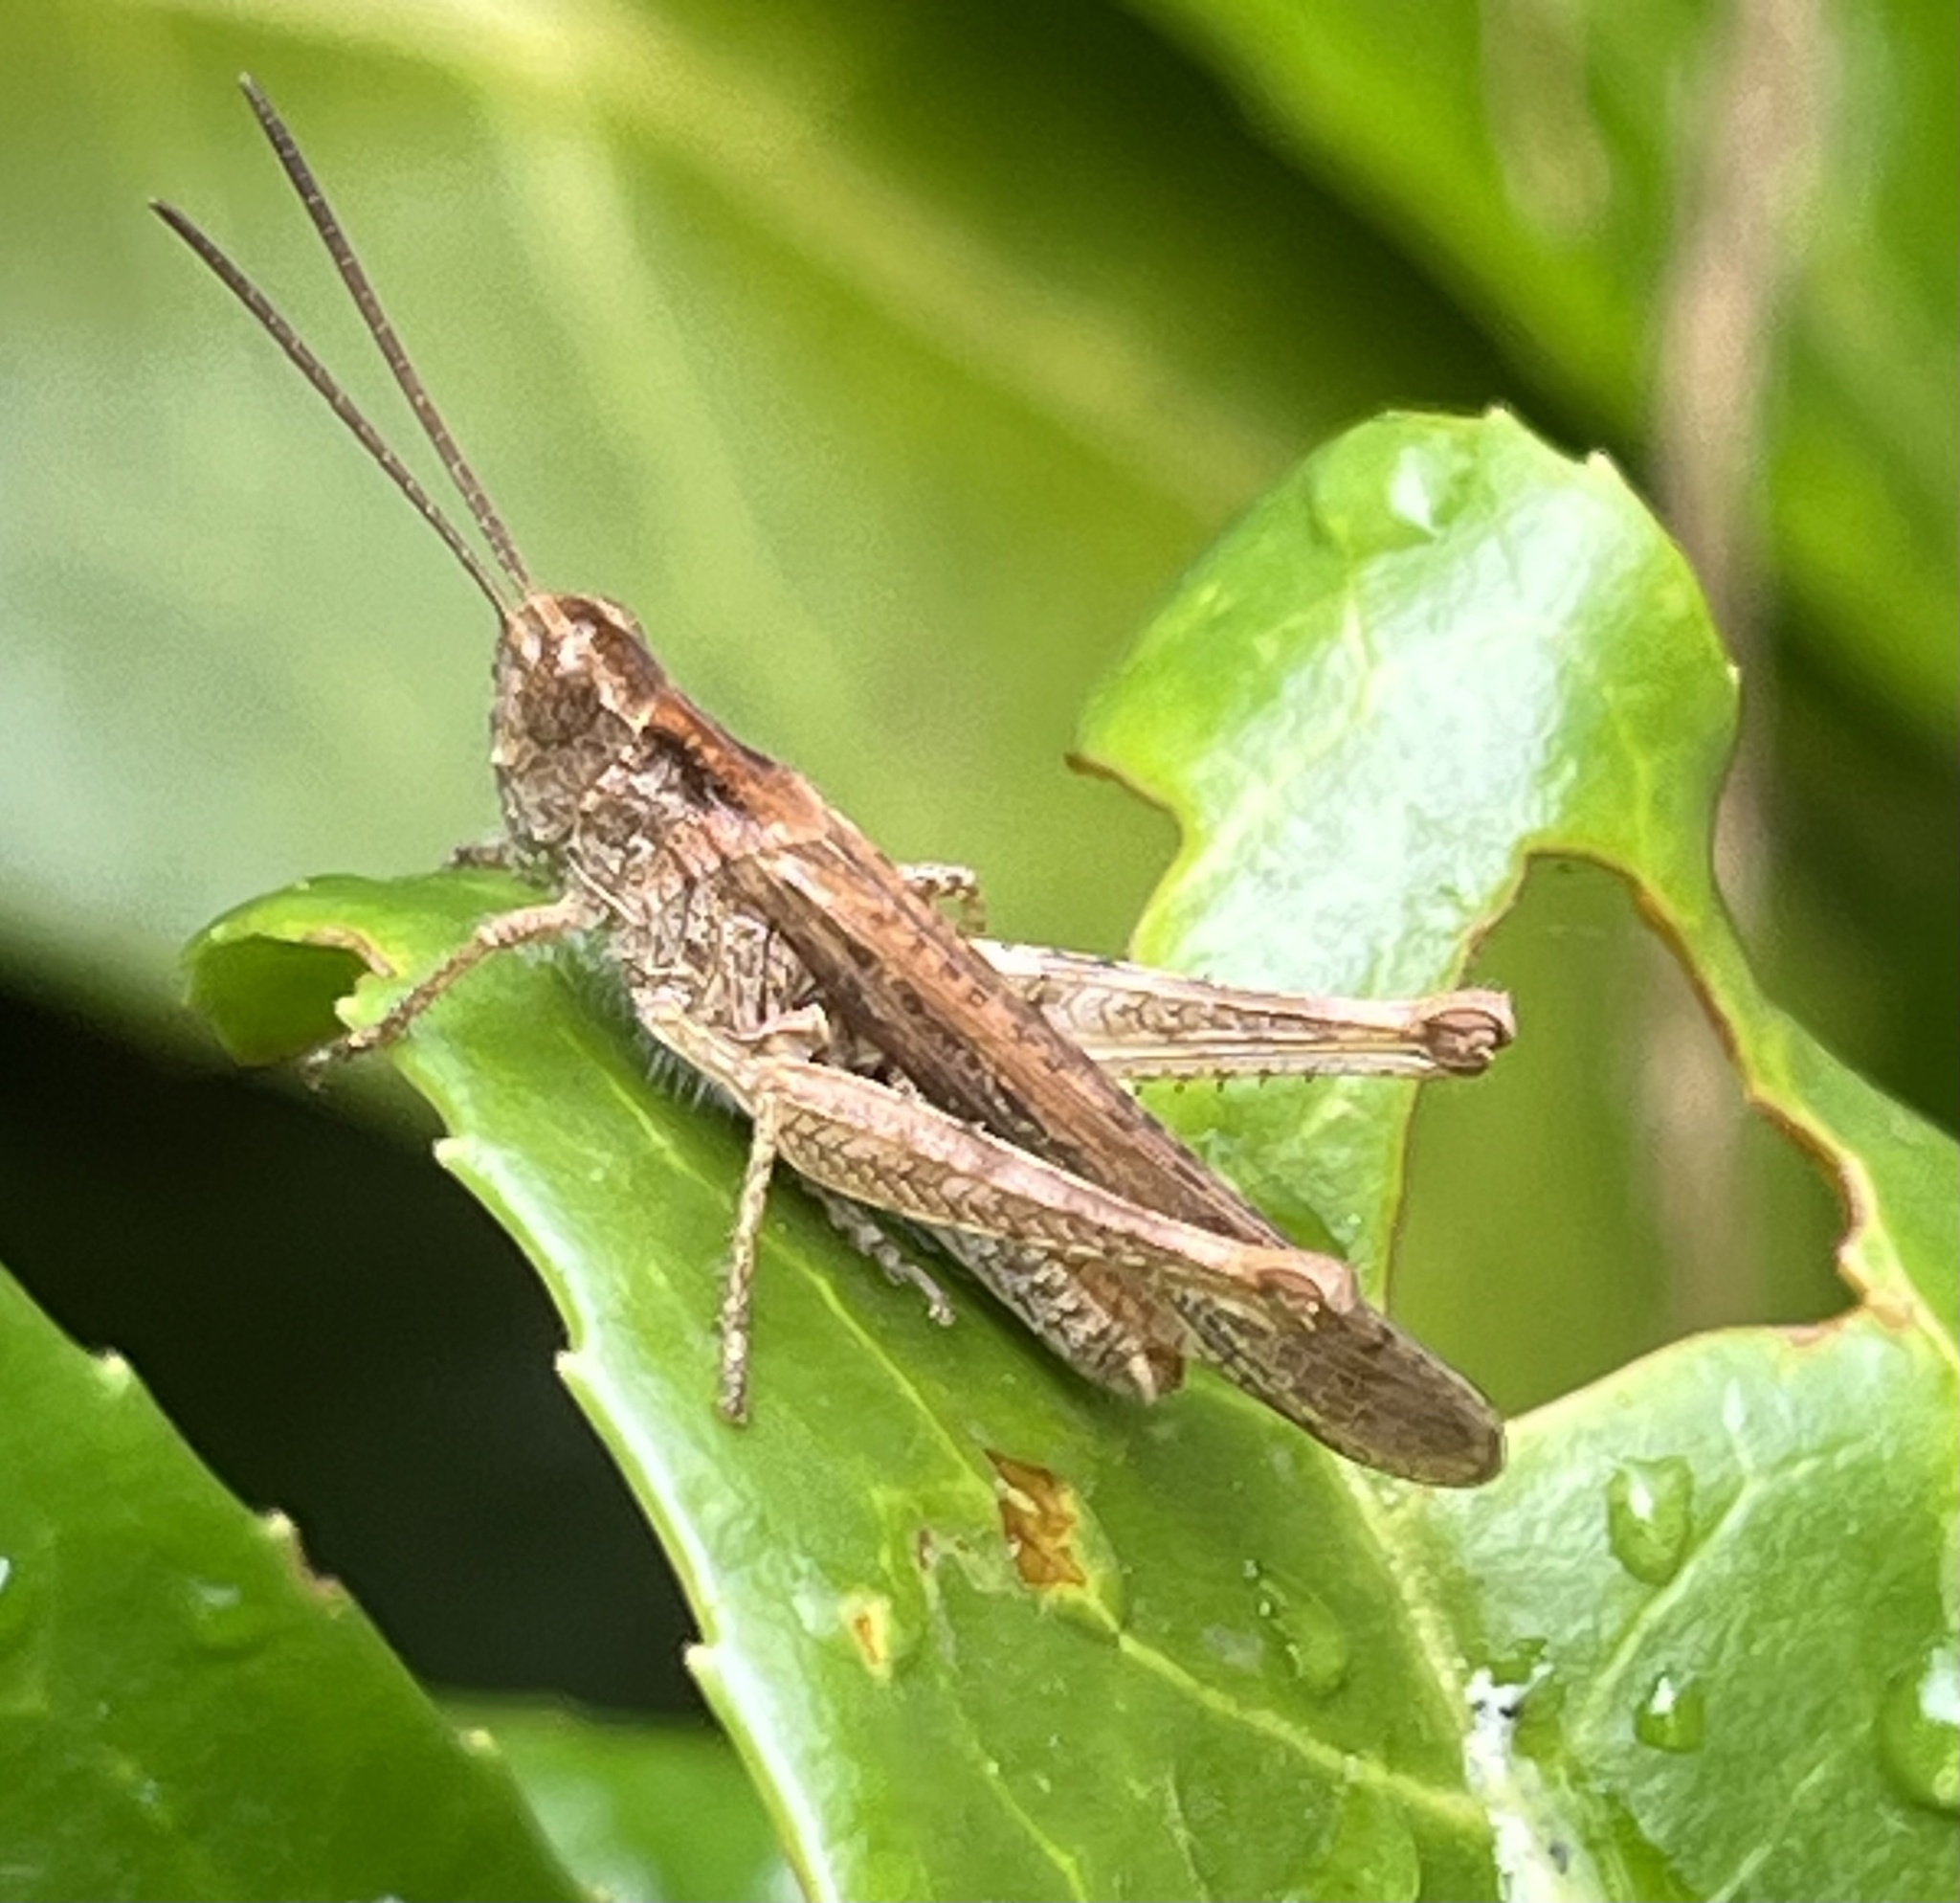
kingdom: Animalia
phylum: Arthropoda
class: Insecta
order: Orthoptera
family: Acrididae
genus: Chorthippus
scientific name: Chorthippus brunneus
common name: Field grasshopper
